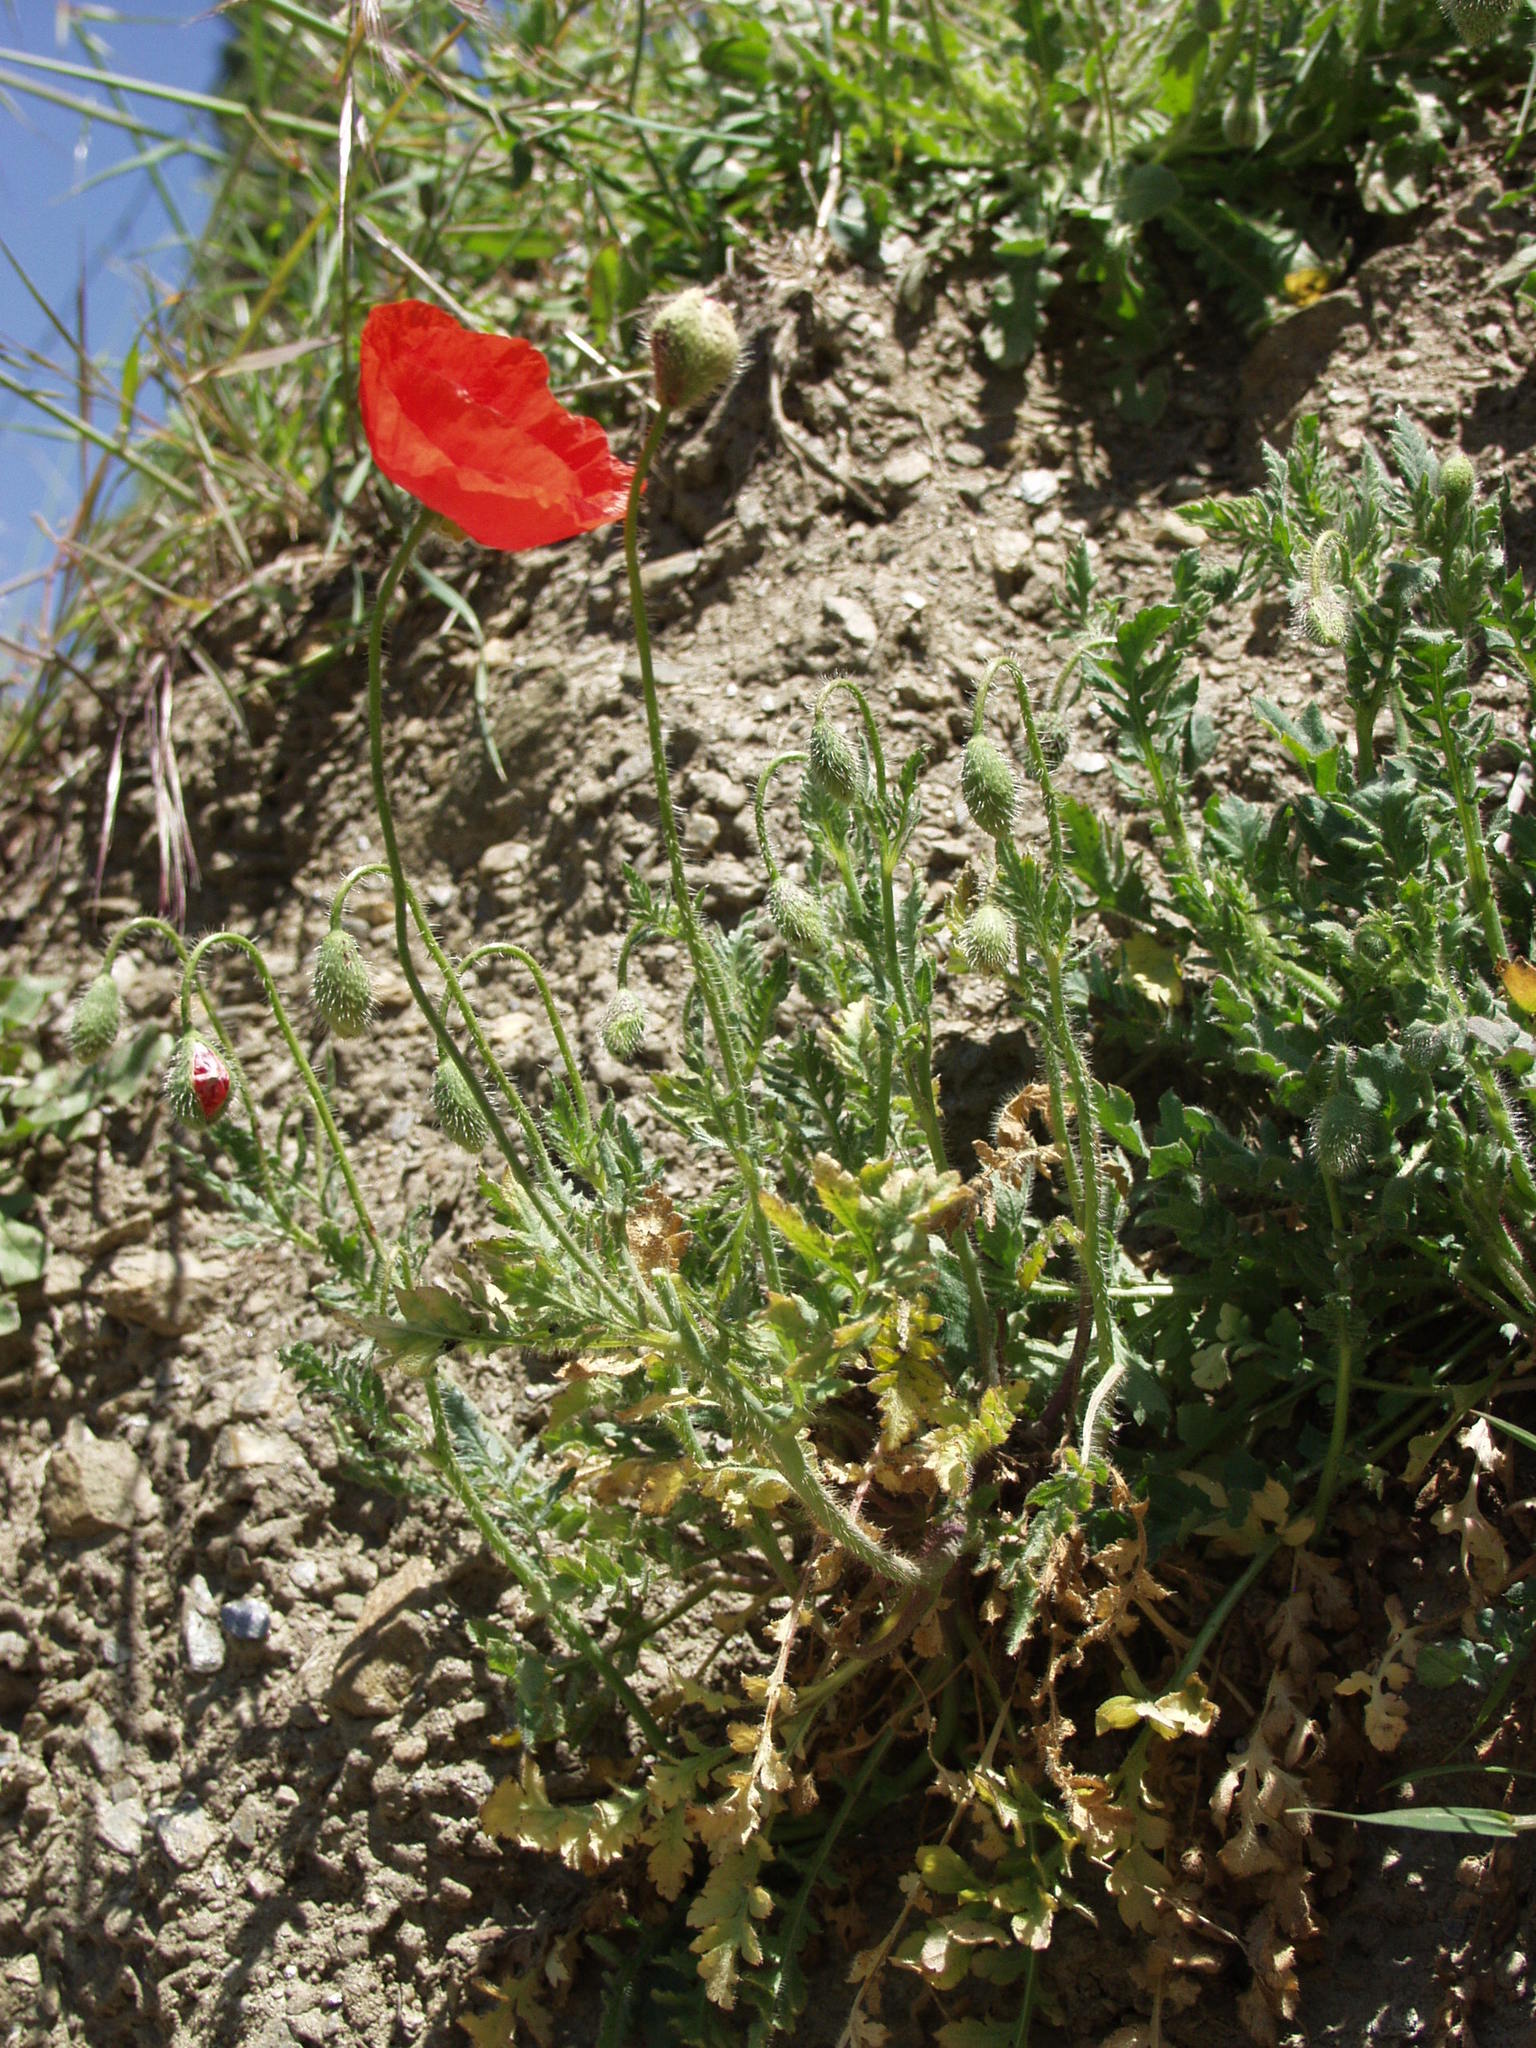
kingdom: Plantae
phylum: Tracheophyta
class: Magnoliopsida
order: Ranunculales
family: Papaveraceae
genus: Papaver
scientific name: Papaver rhoeas
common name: Corn poppy
